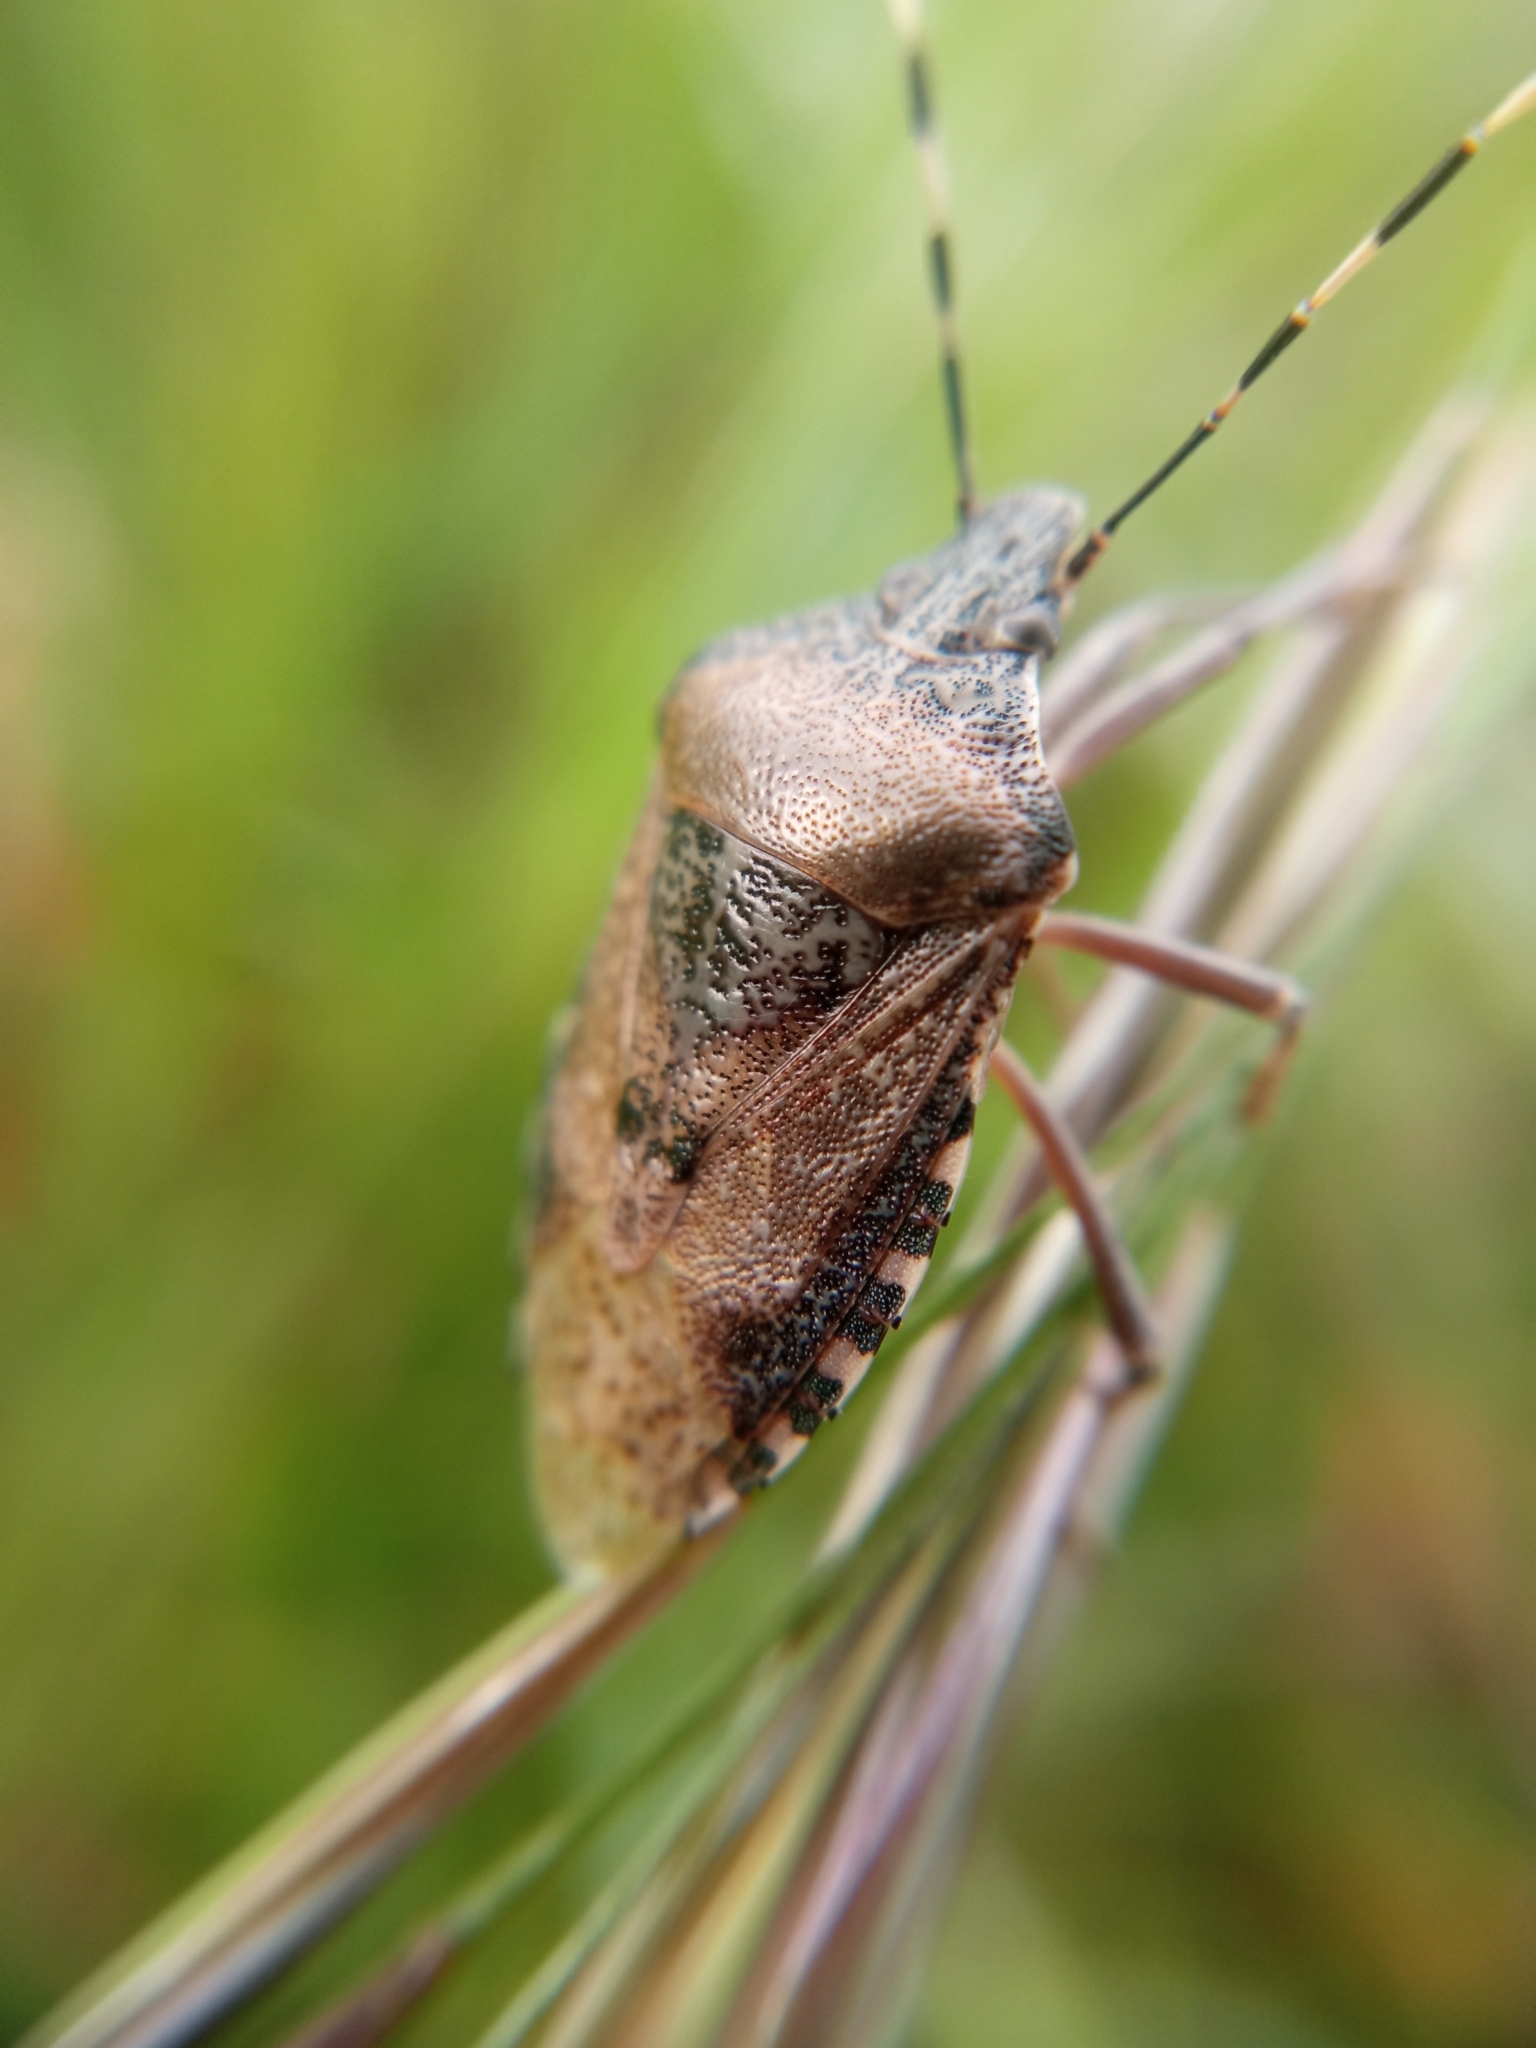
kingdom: Animalia
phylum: Arthropoda
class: Insecta
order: Hemiptera
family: Pentatomidae
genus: Rhaphigaster
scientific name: Rhaphigaster nebulosa
